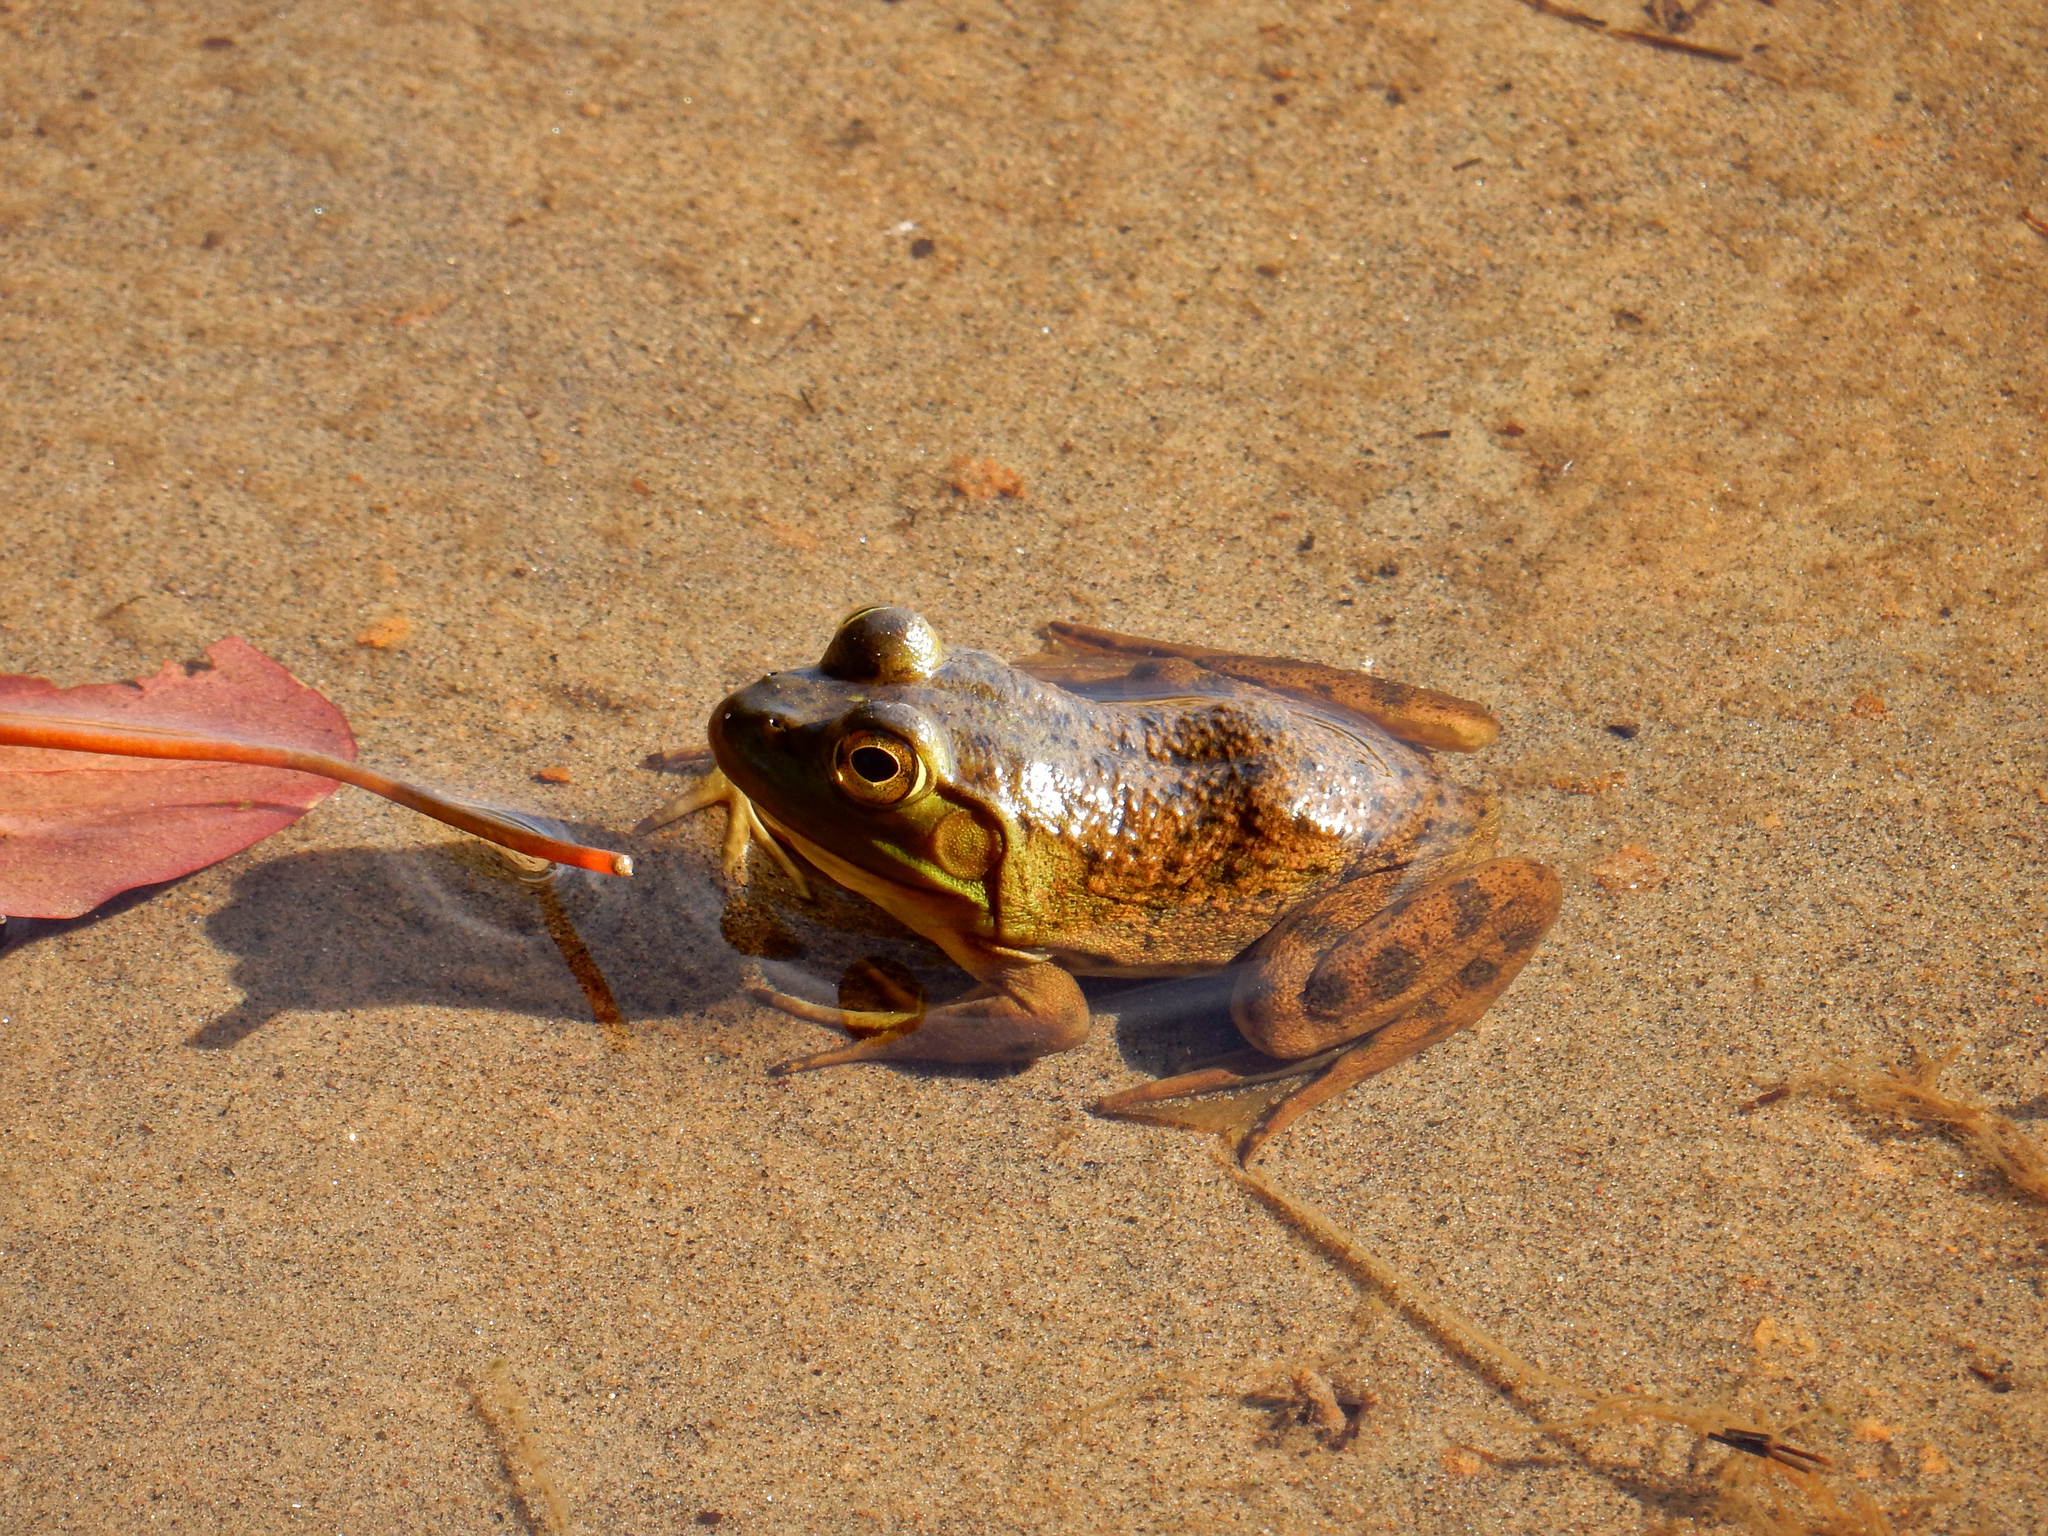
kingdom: Animalia
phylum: Chordata
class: Amphibia
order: Anura
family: Ranidae
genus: Lithobates
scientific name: Lithobates catesbeianus
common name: American bullfrog
